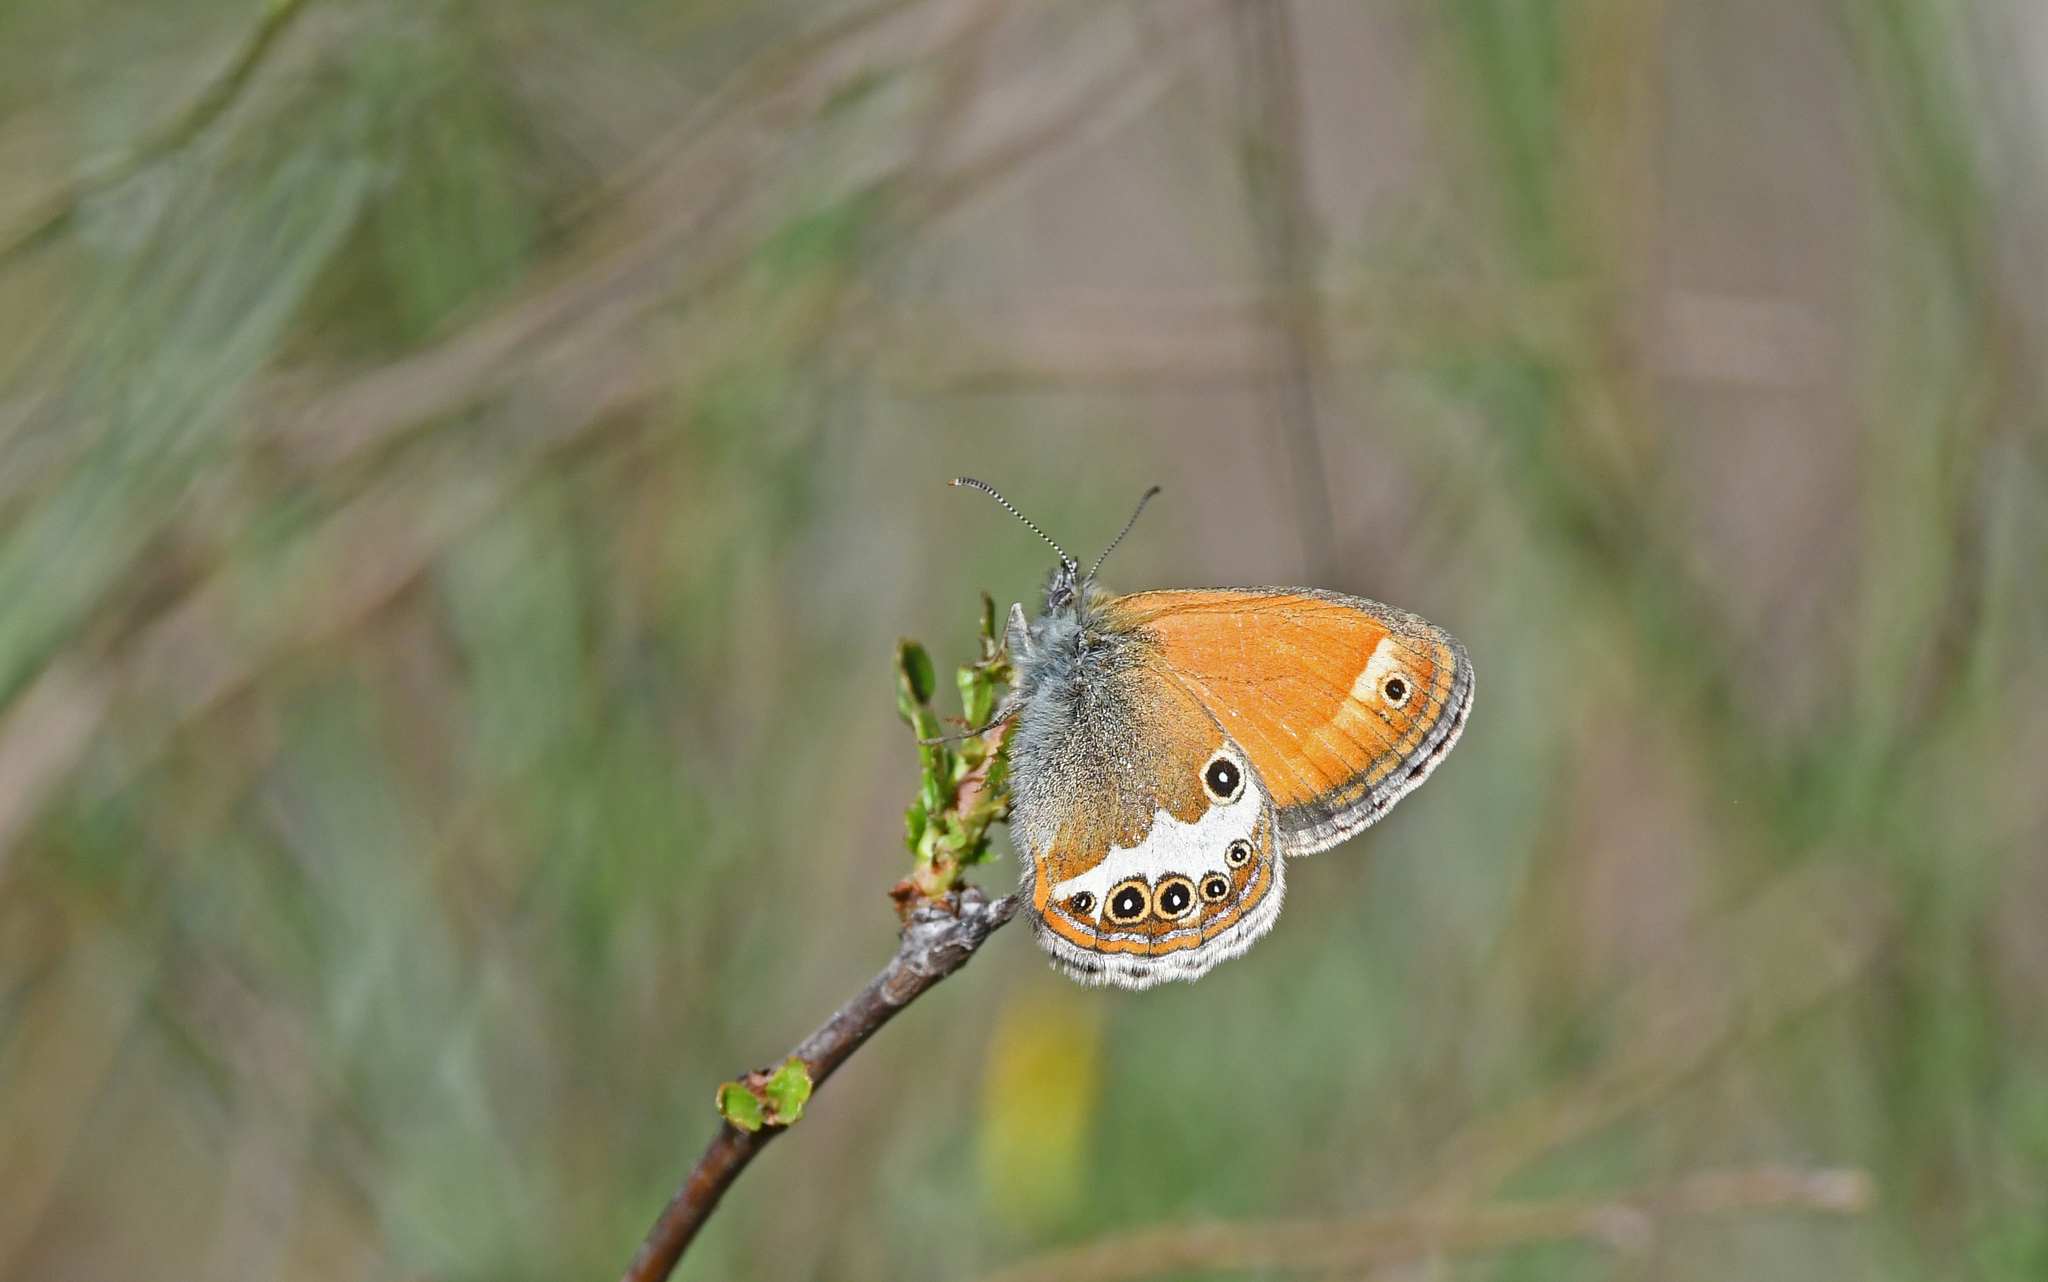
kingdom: Animalia
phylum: Arthropoda
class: Insecta
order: Lepidoptera
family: Nymphalidae
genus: Coenonympha
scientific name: Coenonympha arcania
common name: Pearly heath
